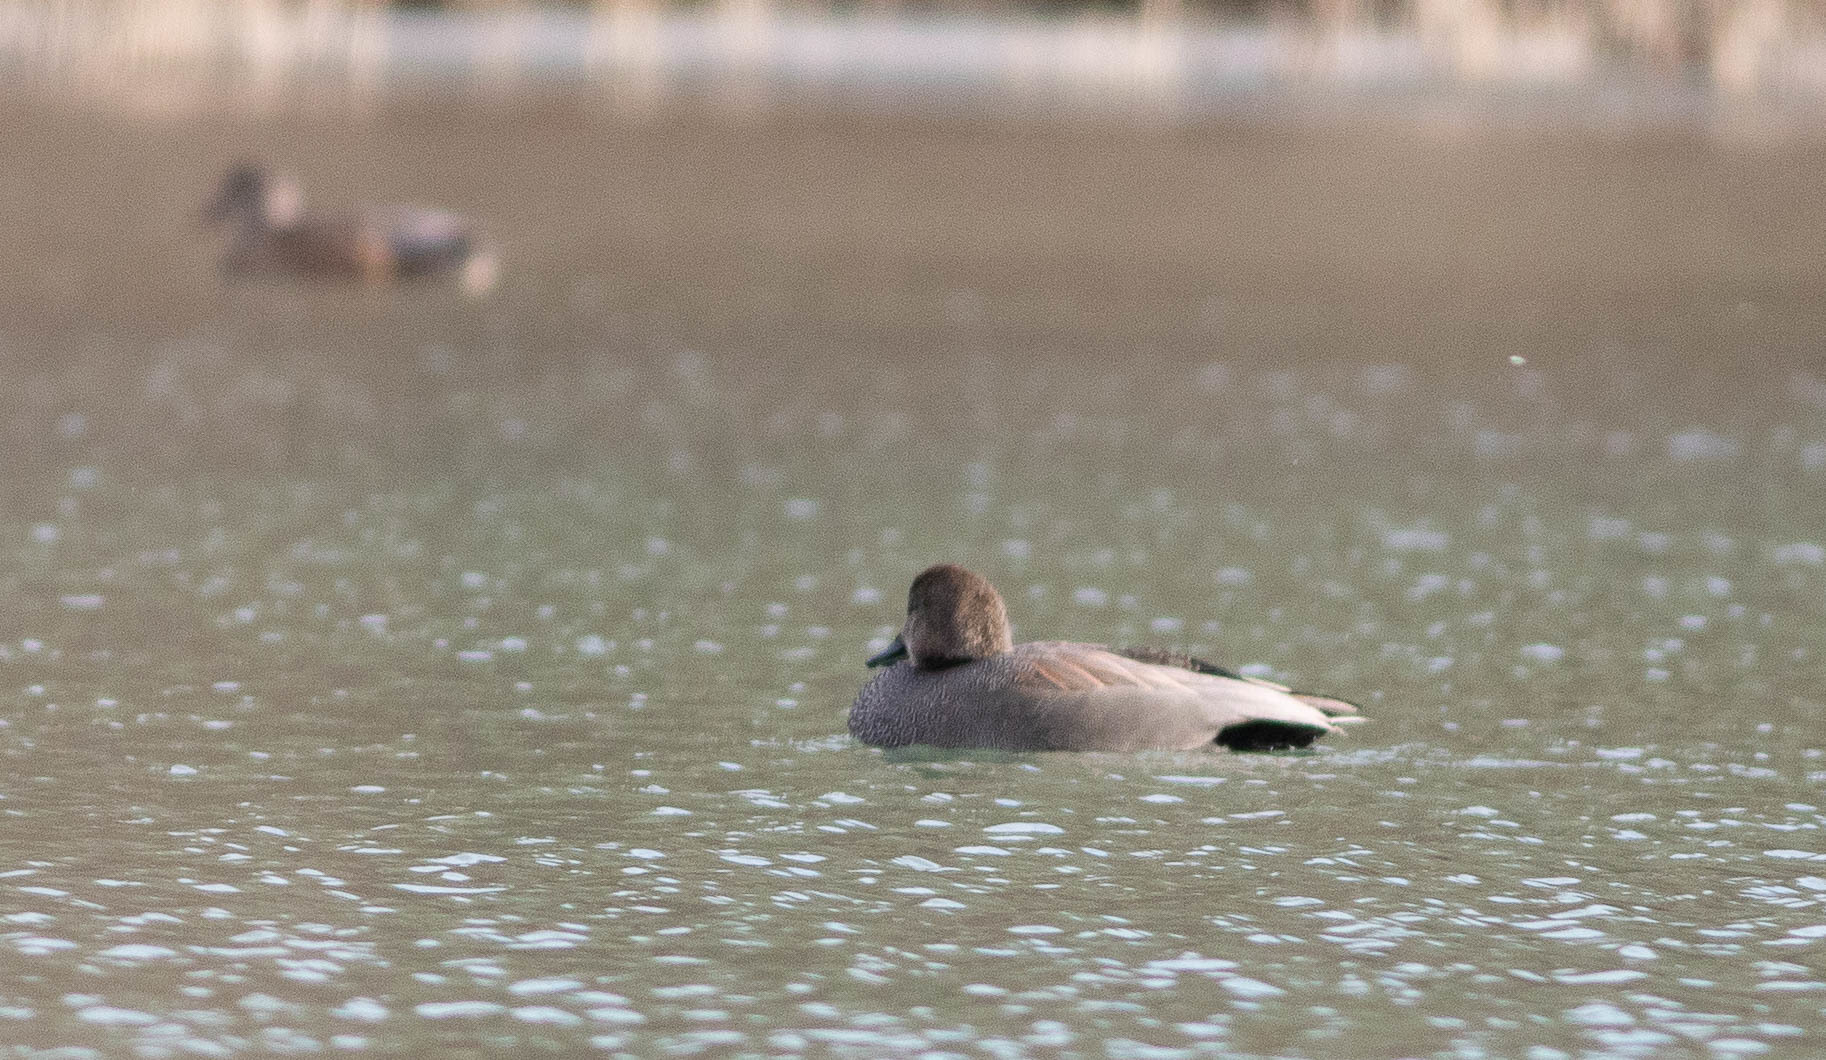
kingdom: Animalia
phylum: Chordata
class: Aves
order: Anseriformes
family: Anatidae
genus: Mareca
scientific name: Mareca strepera
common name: Gadwall
